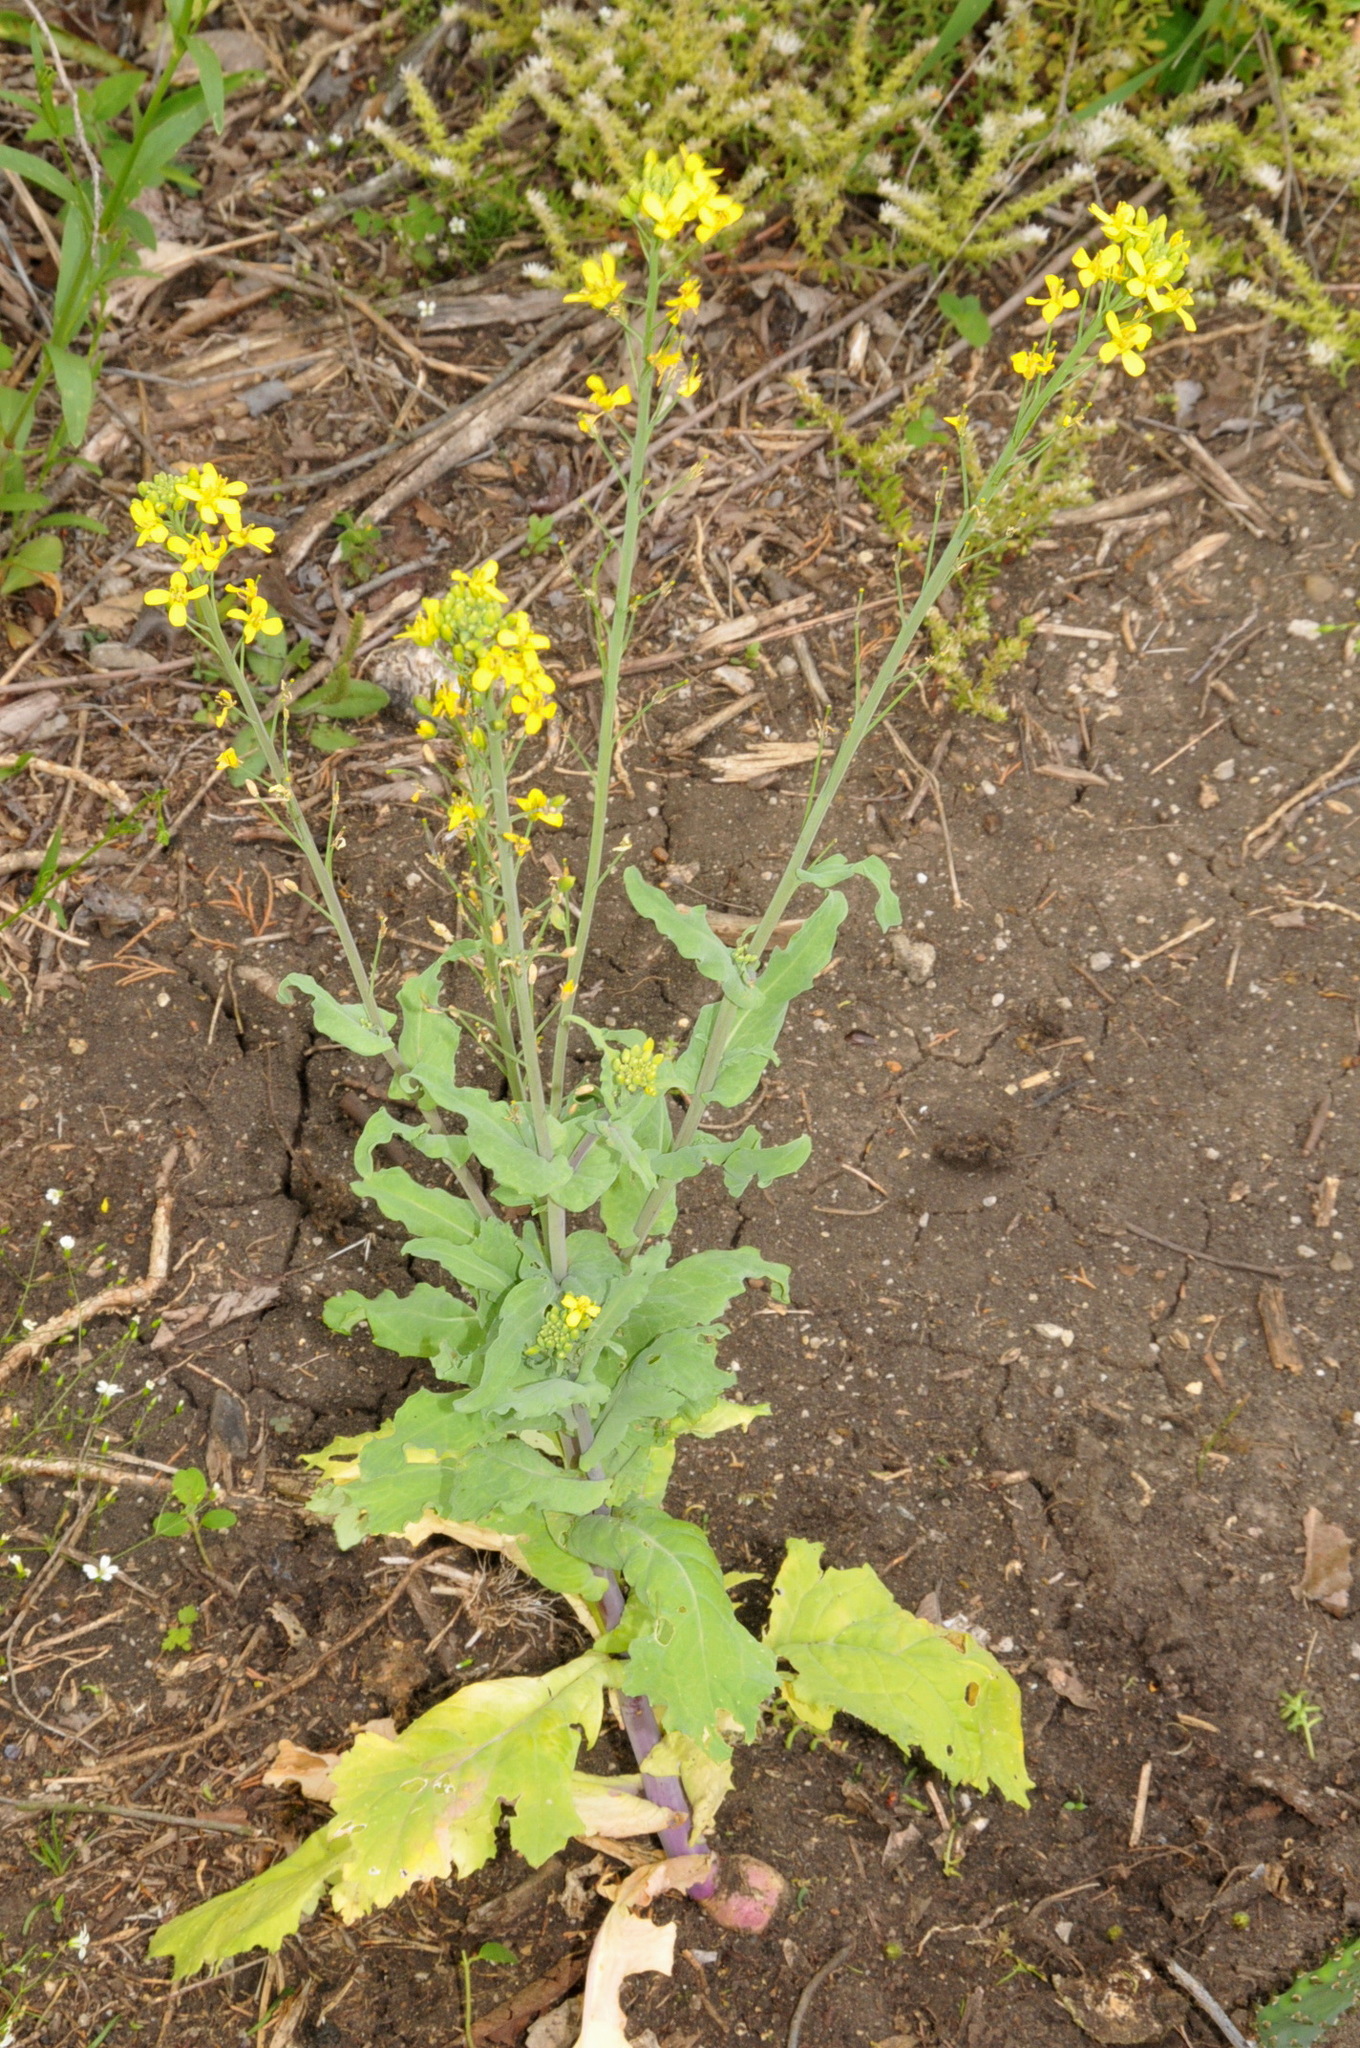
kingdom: Plantae
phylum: Tracheophyta
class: Magnoliopsida
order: Brassicales
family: Brassicaceae
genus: Brassica
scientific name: Brassica rapa
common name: Field mustard
